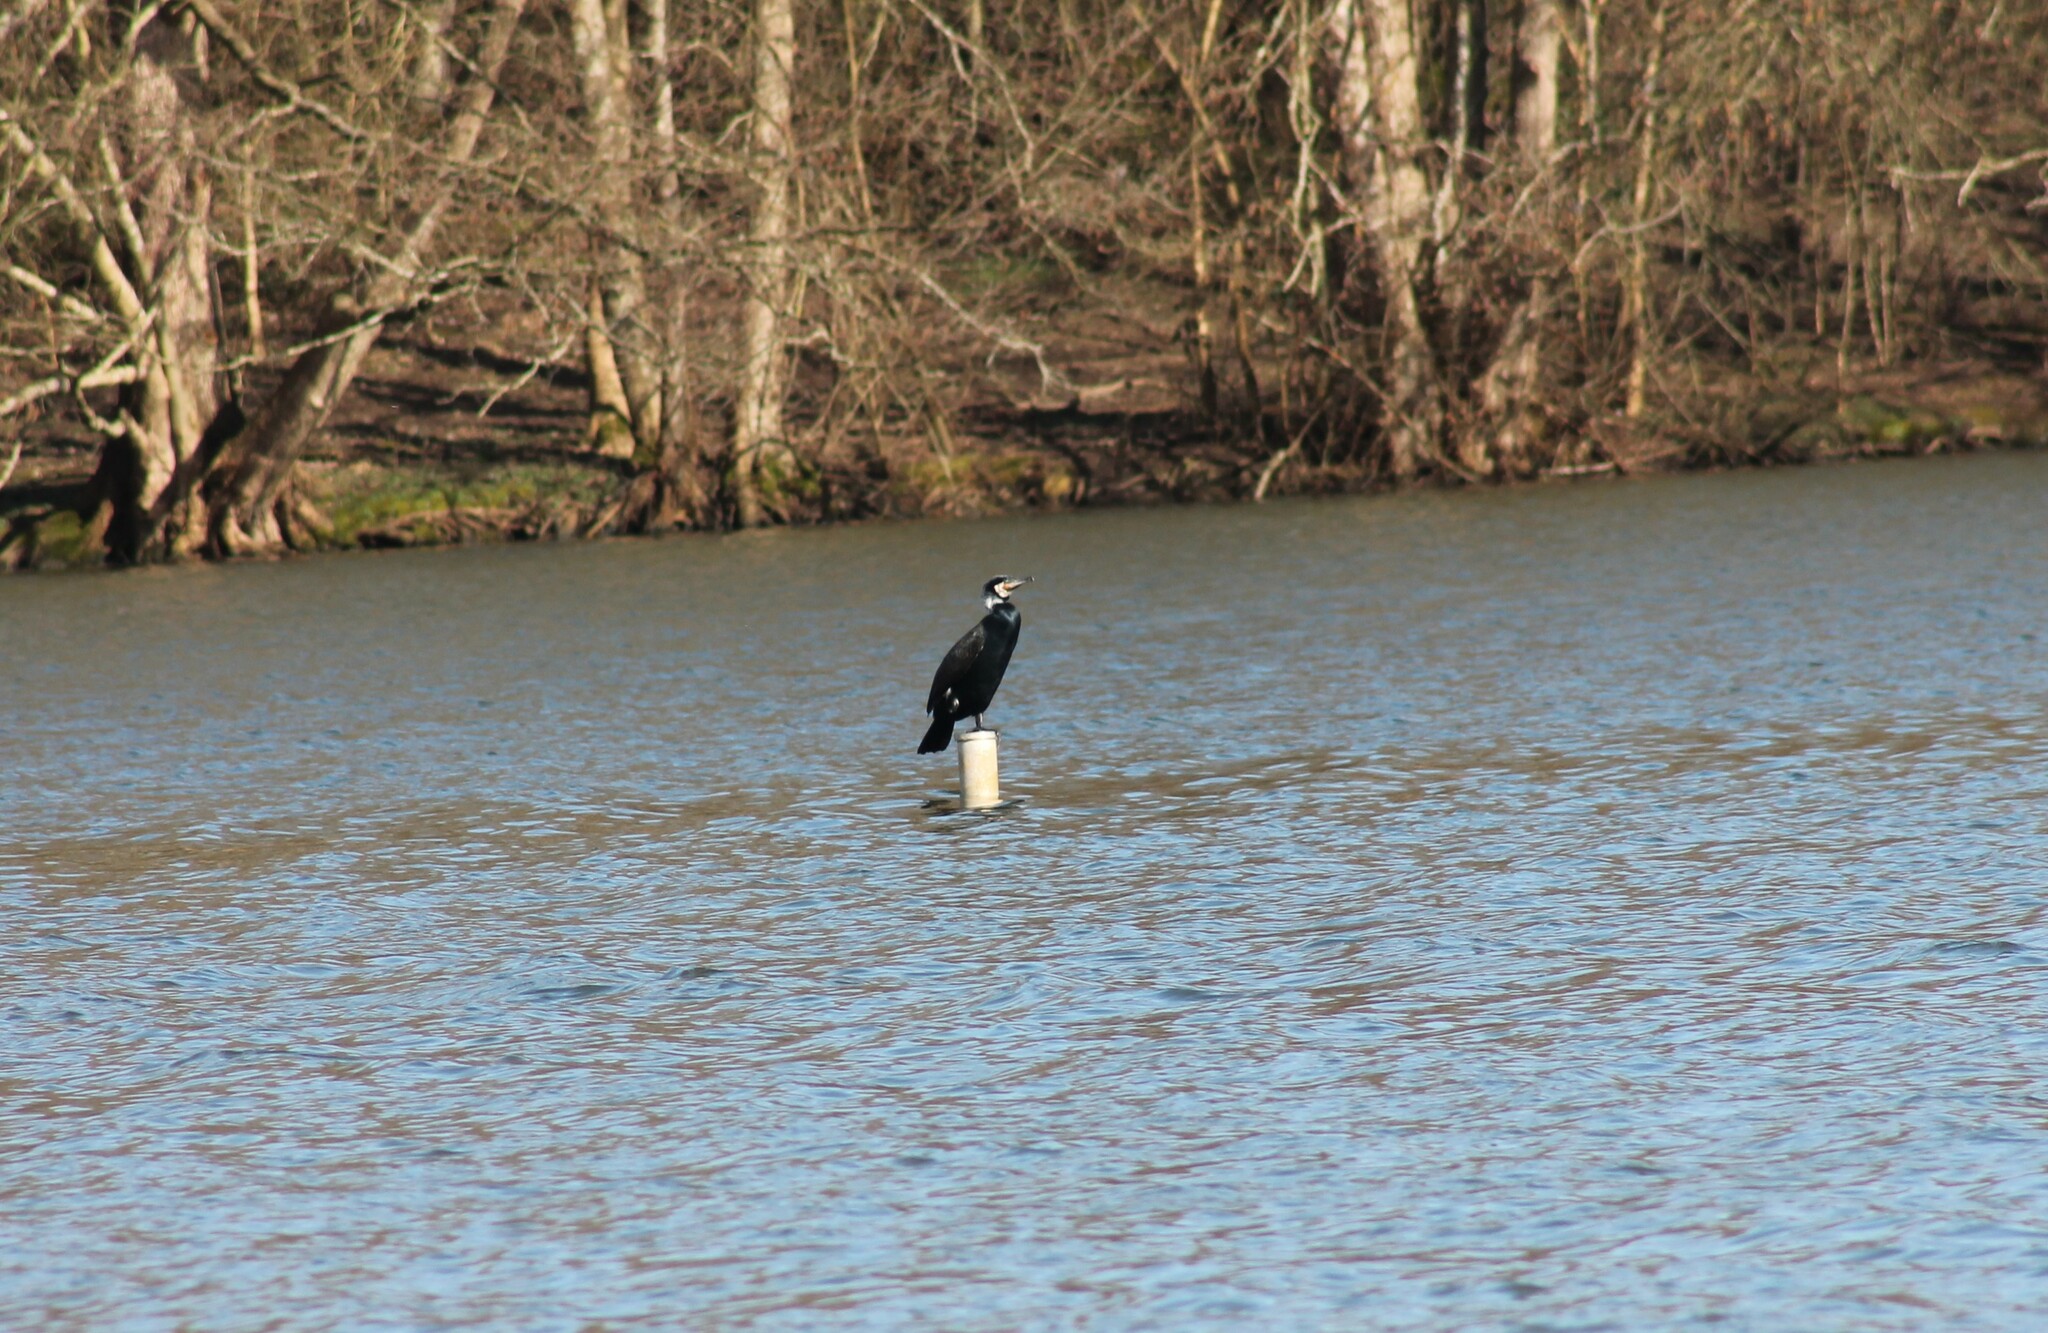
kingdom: Animalia
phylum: Chordata
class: Aves
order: Suliformes
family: Phalacrocoracidae
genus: Phalacrocorax
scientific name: Phalacrocorax carbo
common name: Great cormorant
